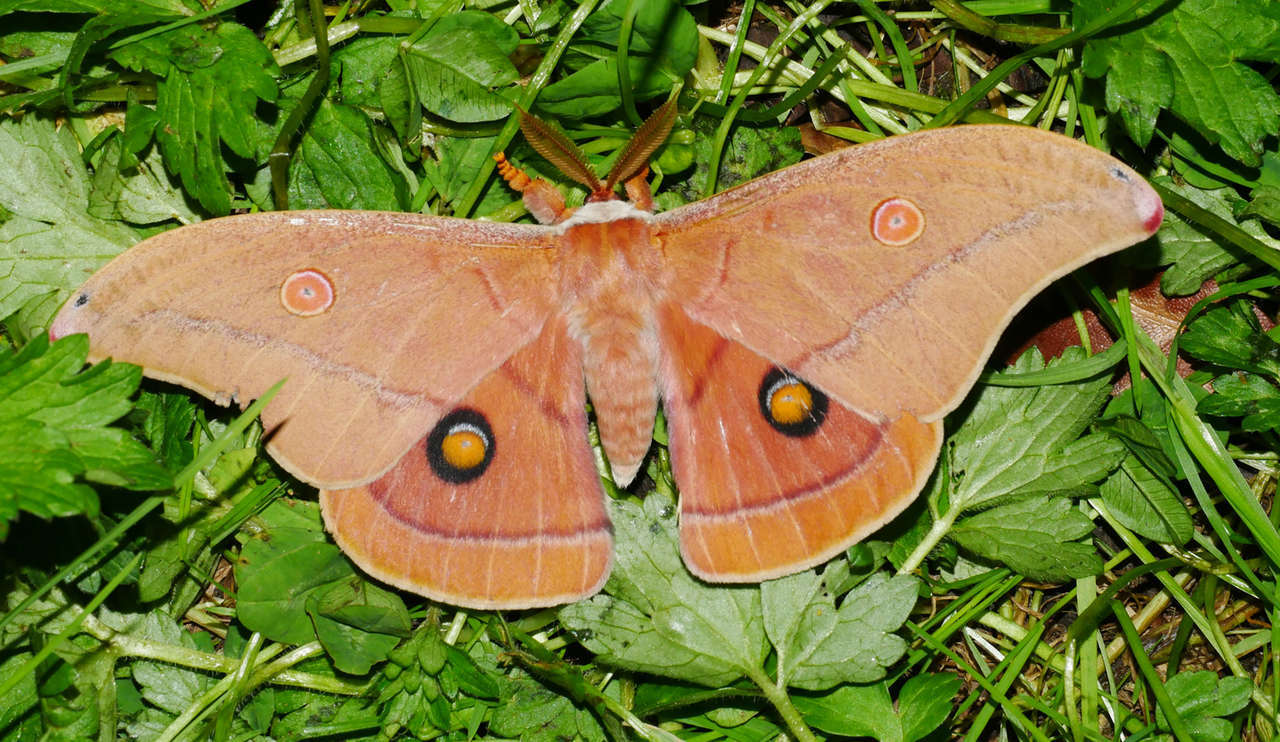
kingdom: Animalia
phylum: Arthropoda
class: Insecta
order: Lepidoptera
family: Saturniidae
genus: Opodiphthera
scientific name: Opodiphthera
